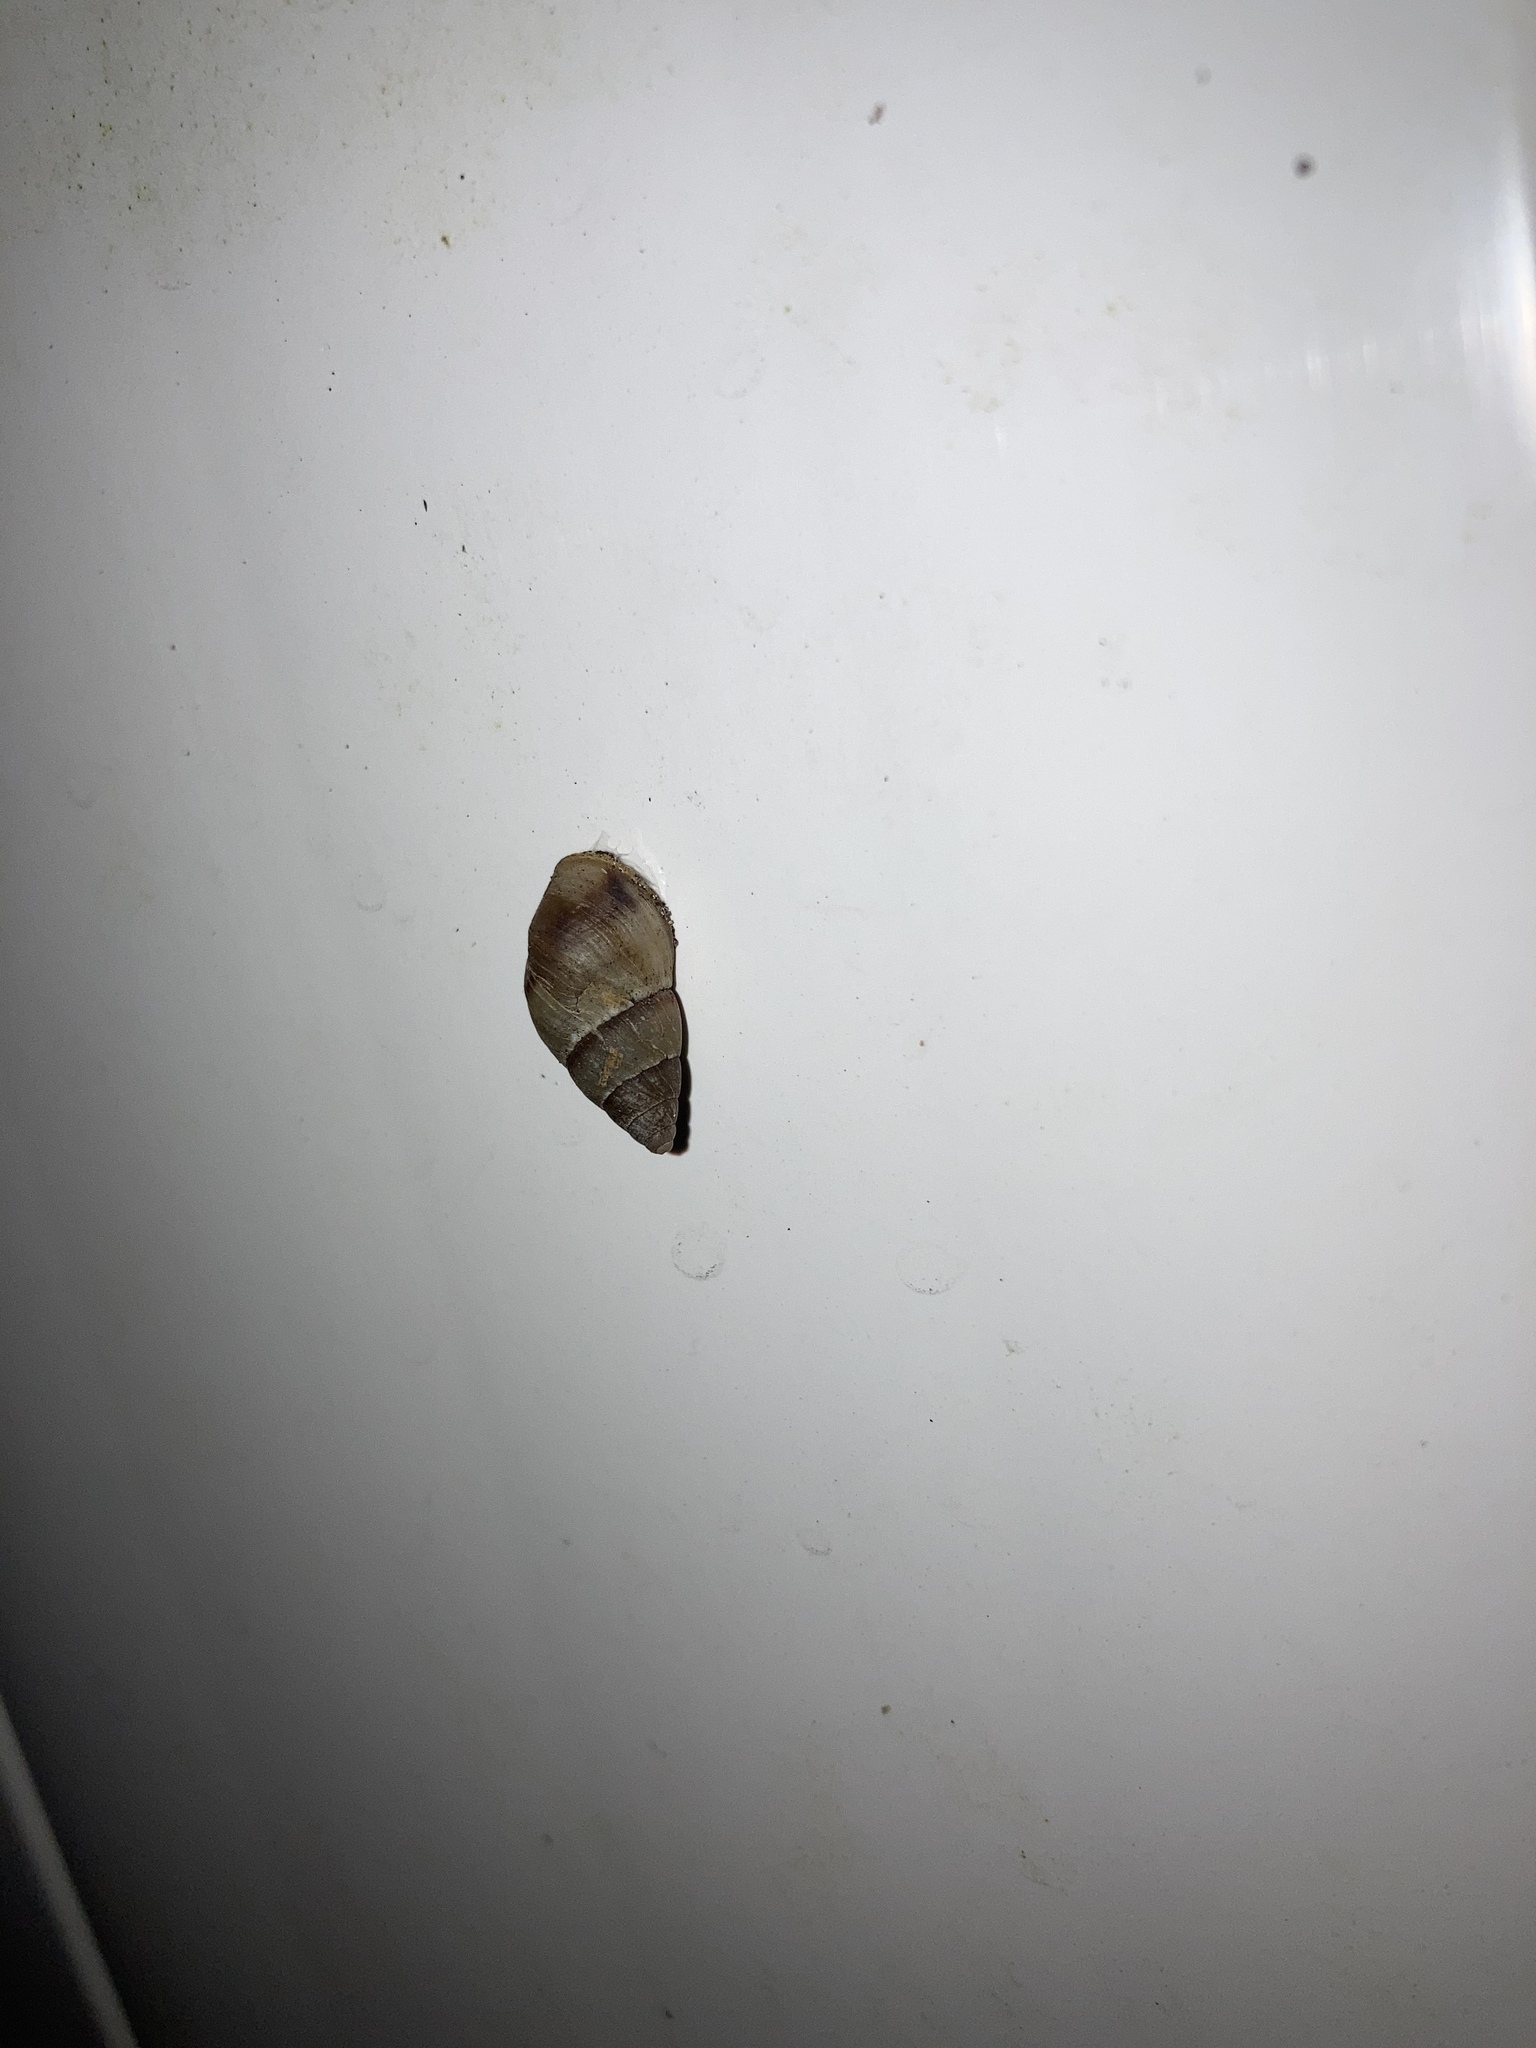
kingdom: Animalia
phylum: Mollusca
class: Gastropoda
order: Stylommatophora
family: Bulimulidae
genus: Bulimulus
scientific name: Bulimulus guadalupensis
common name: West indian bulimulus
